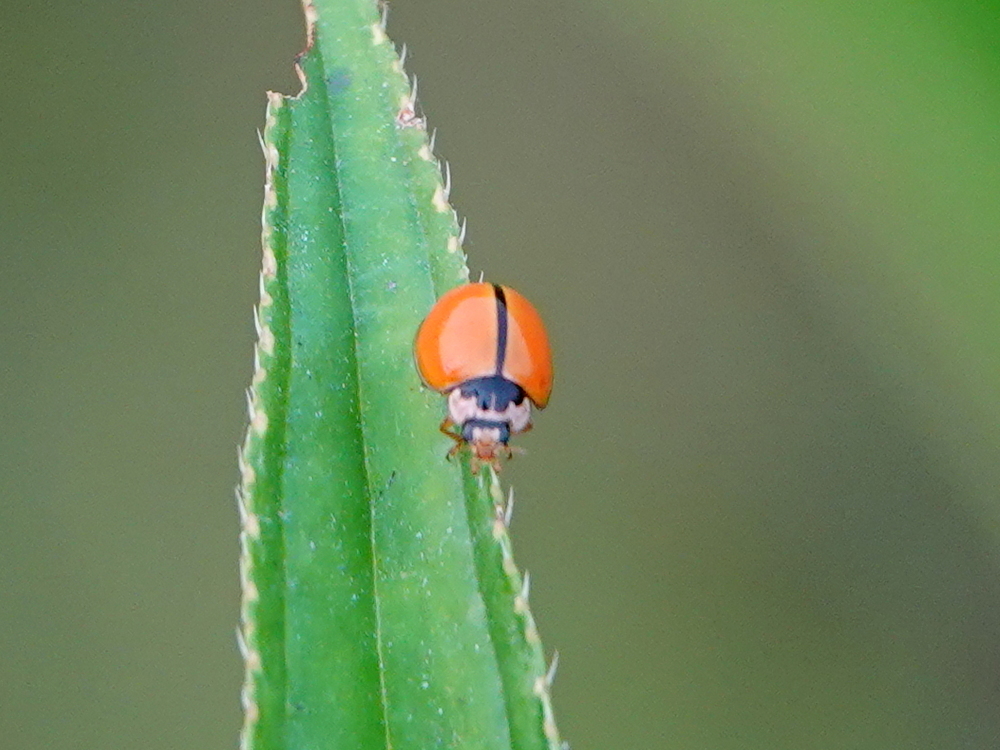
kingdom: Animalia
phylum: Arthropoda
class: Insecta
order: Coleoptera
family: Coccinellidae
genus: Micraspis
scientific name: Micraspis discolor
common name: Lady beetle
